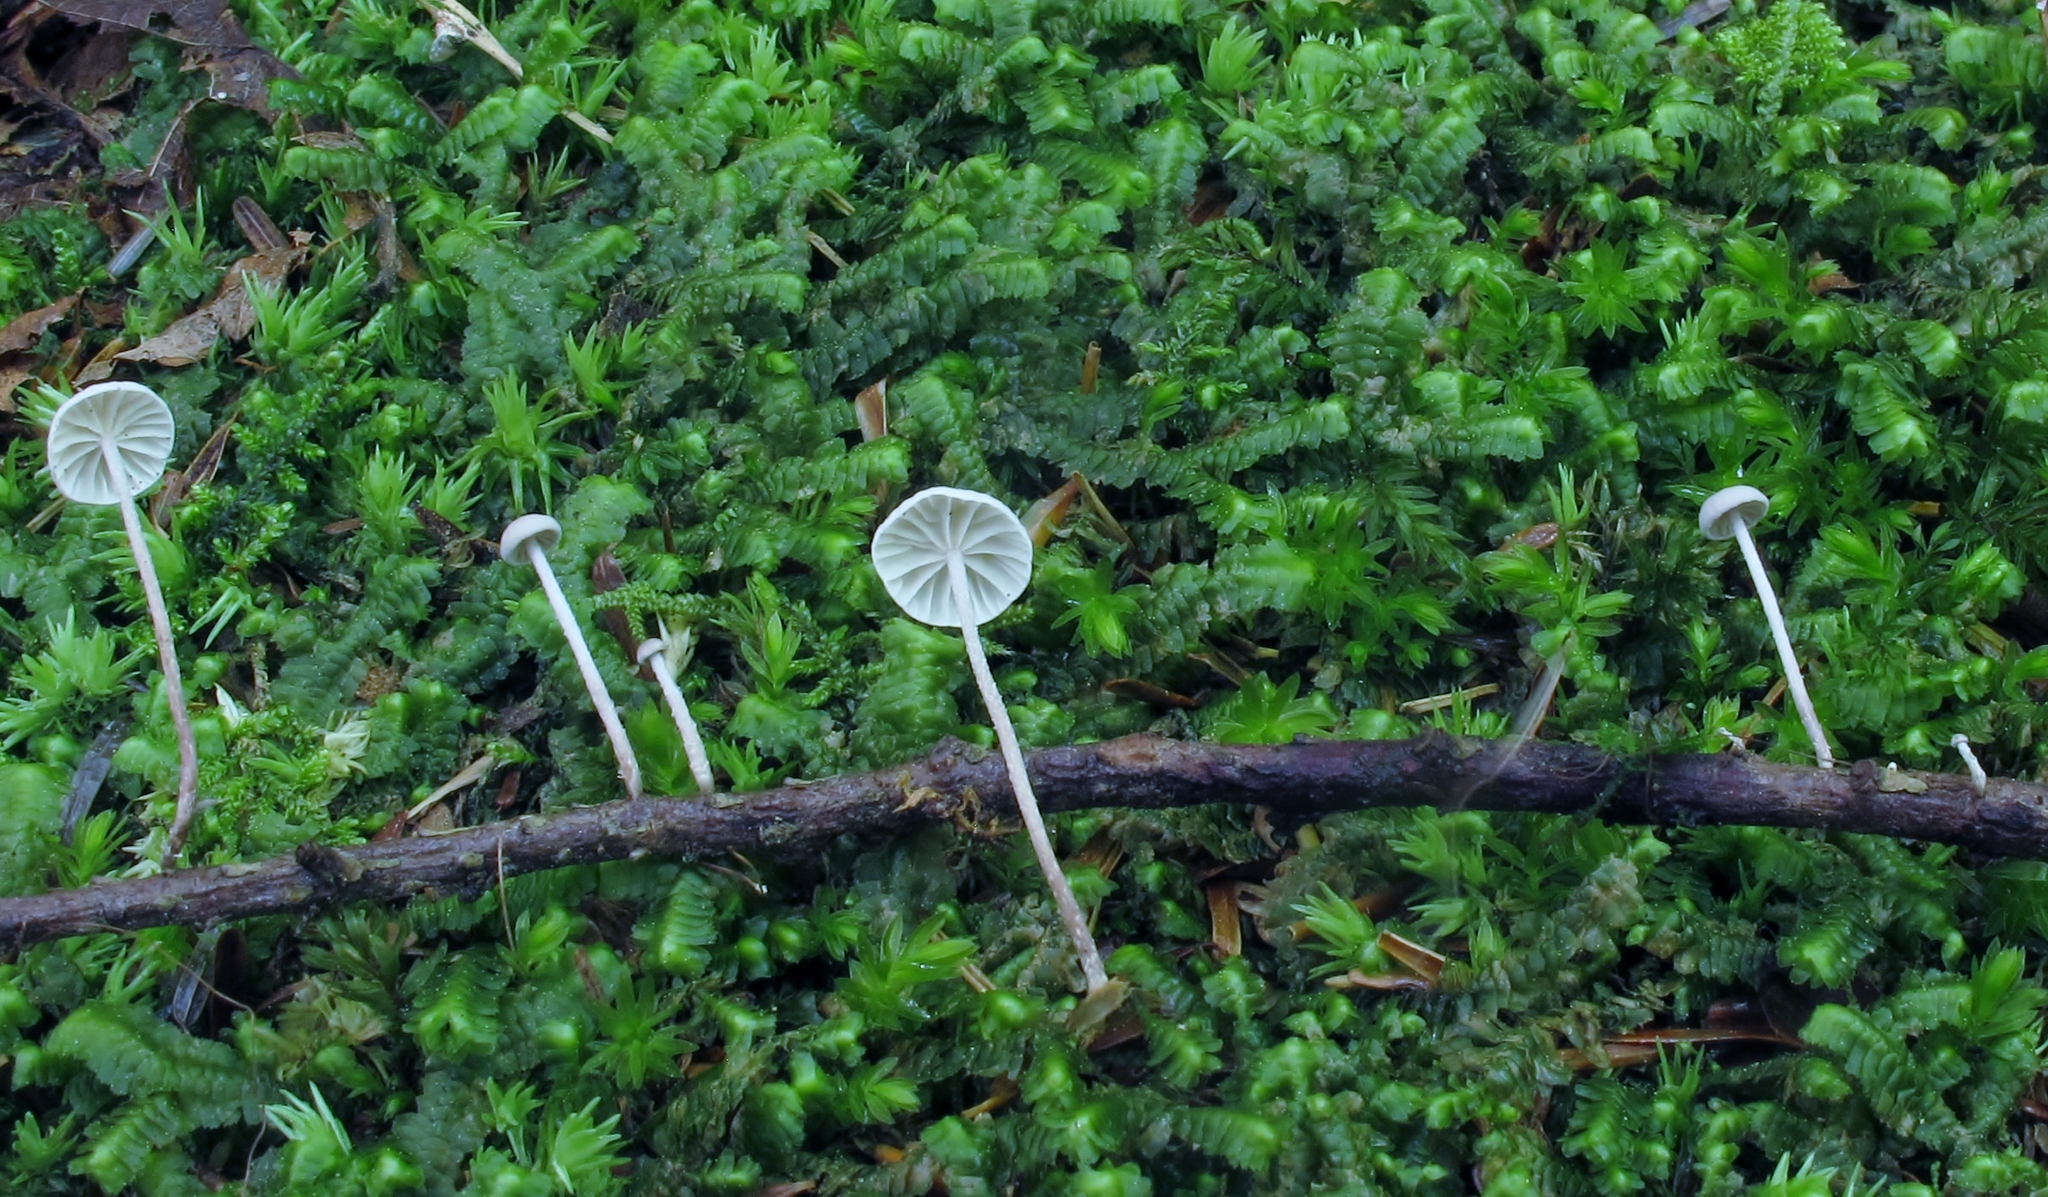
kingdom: Fungi
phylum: Basidiomycota
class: Agaricomycetes
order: Agaricales
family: Omphalotaceae
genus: Mycetinis
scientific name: Mycetinis opacus
